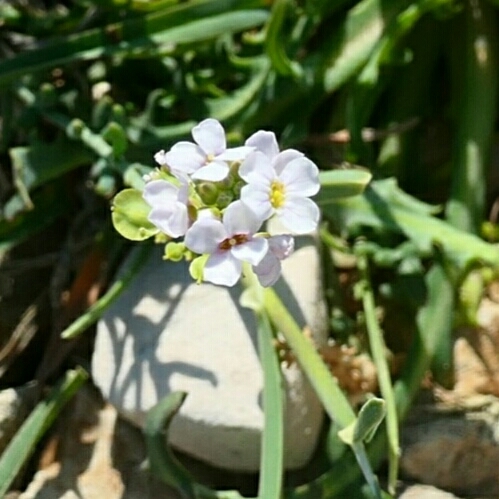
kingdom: Plantae
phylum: Tracheophyta
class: Magnoliopsida
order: Brassicales
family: Brassicaceae
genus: Aethionema
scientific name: Aethionema saxatile
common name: Burnt candytuft
